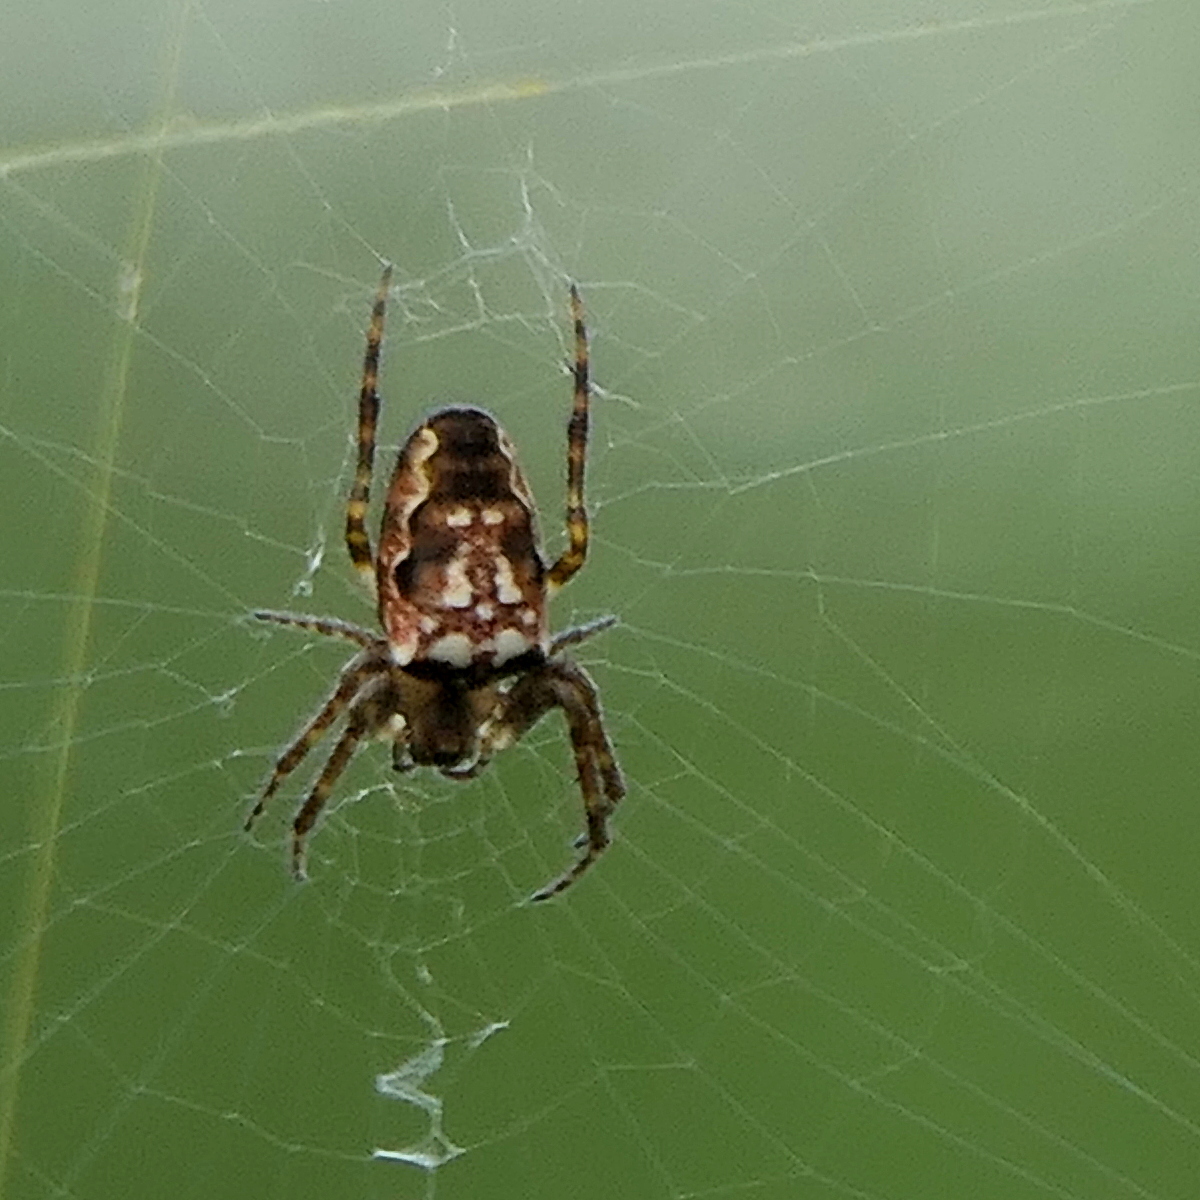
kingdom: Animalia
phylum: Arthropoda
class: Arachnida
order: Araneae
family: Araneidae
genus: Plebs
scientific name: Plebs eburnus
